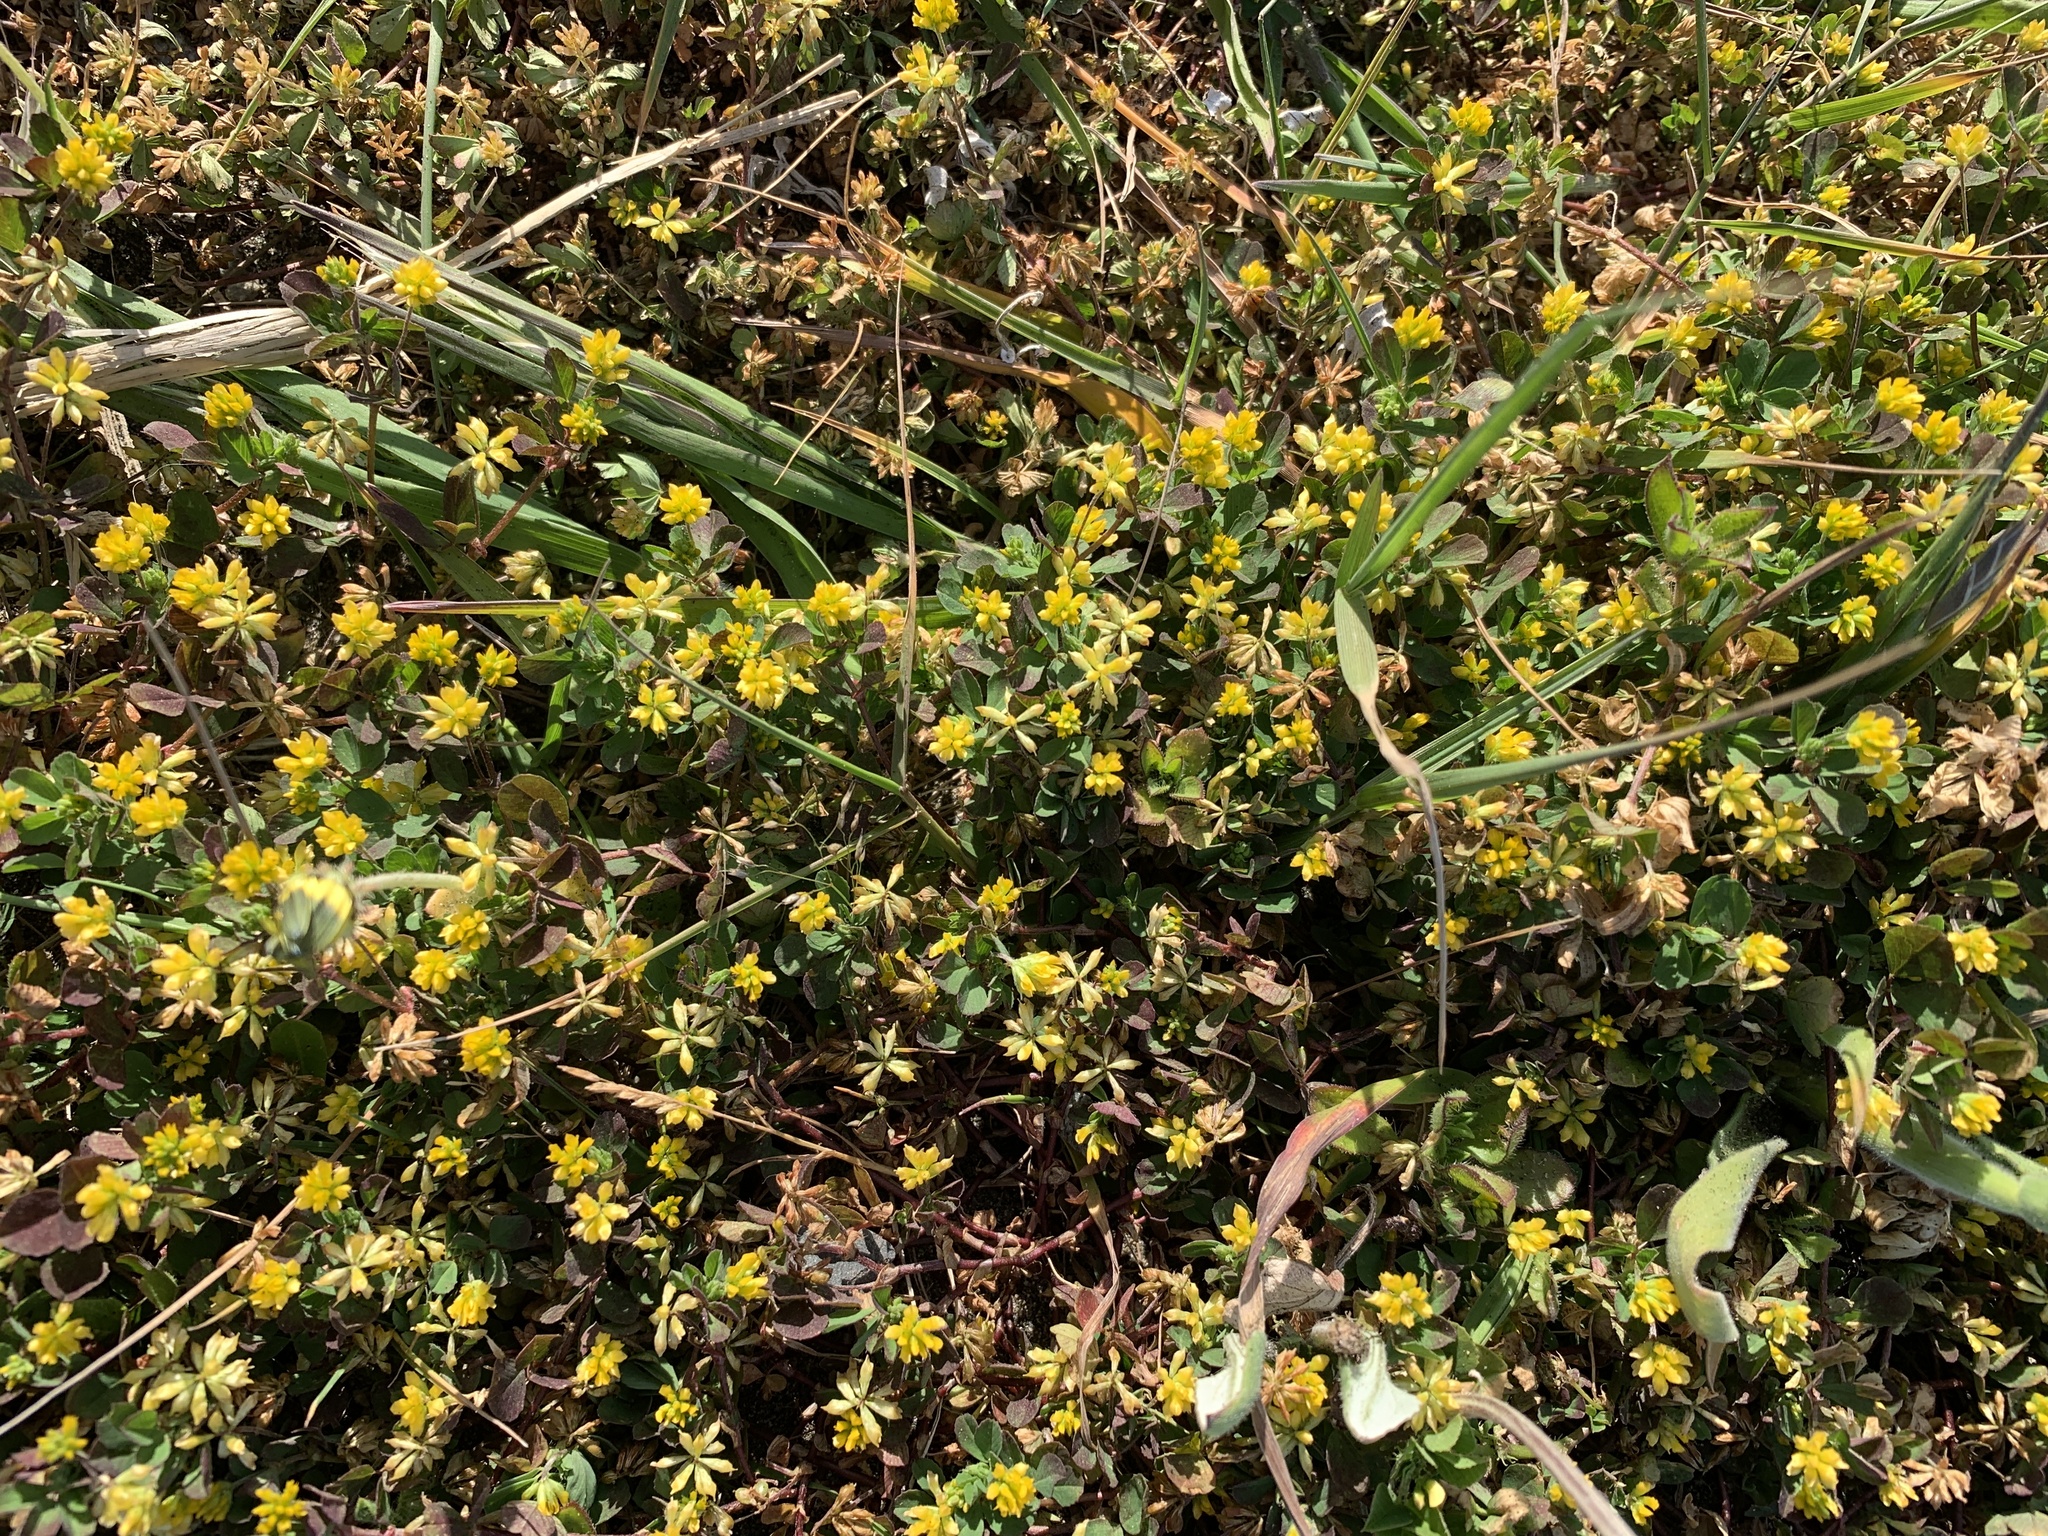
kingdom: Plantae
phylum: Tracheophyta
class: Magnoliopsida
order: Fabales
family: Fabaceae
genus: Trifolium
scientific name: Trifolium dubium
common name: Suckling clover
